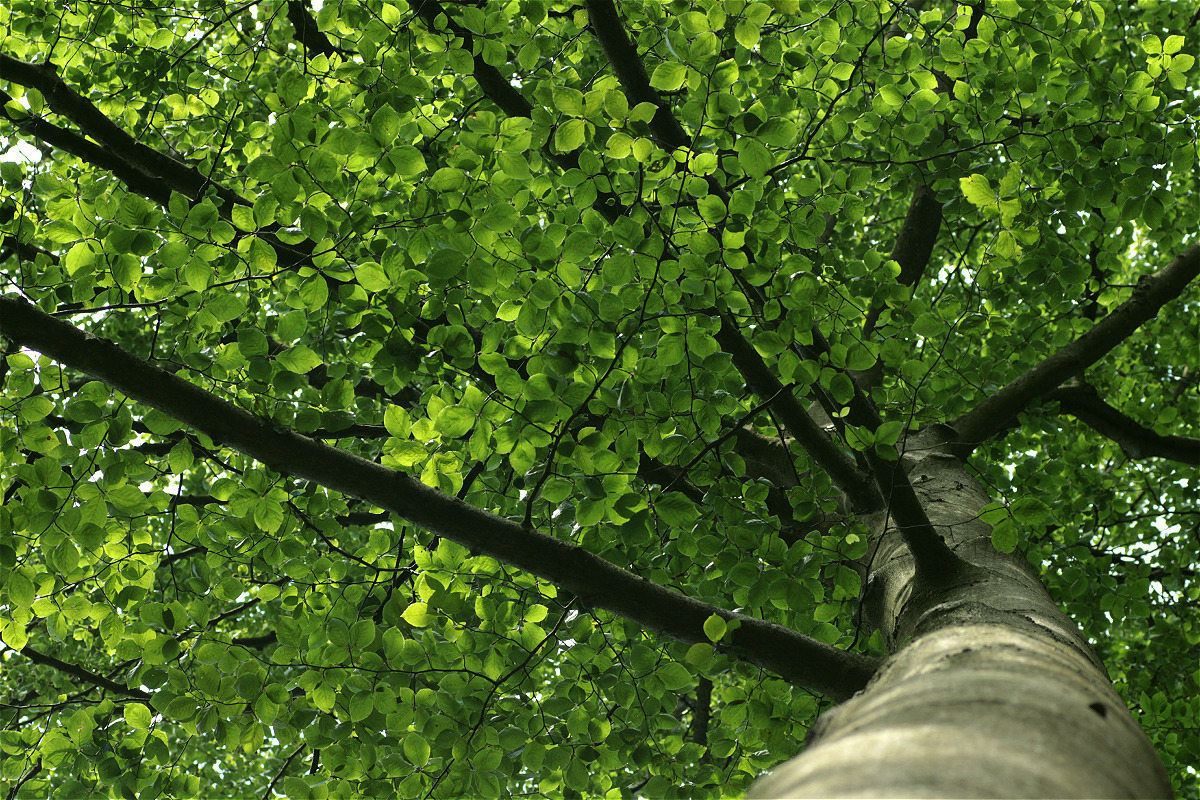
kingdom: Plantae
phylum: Tracheophyta
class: Magnoliopsida
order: Fagales
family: Fagaceae
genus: Fagus
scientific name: Fagus sylvatica
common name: Beech
